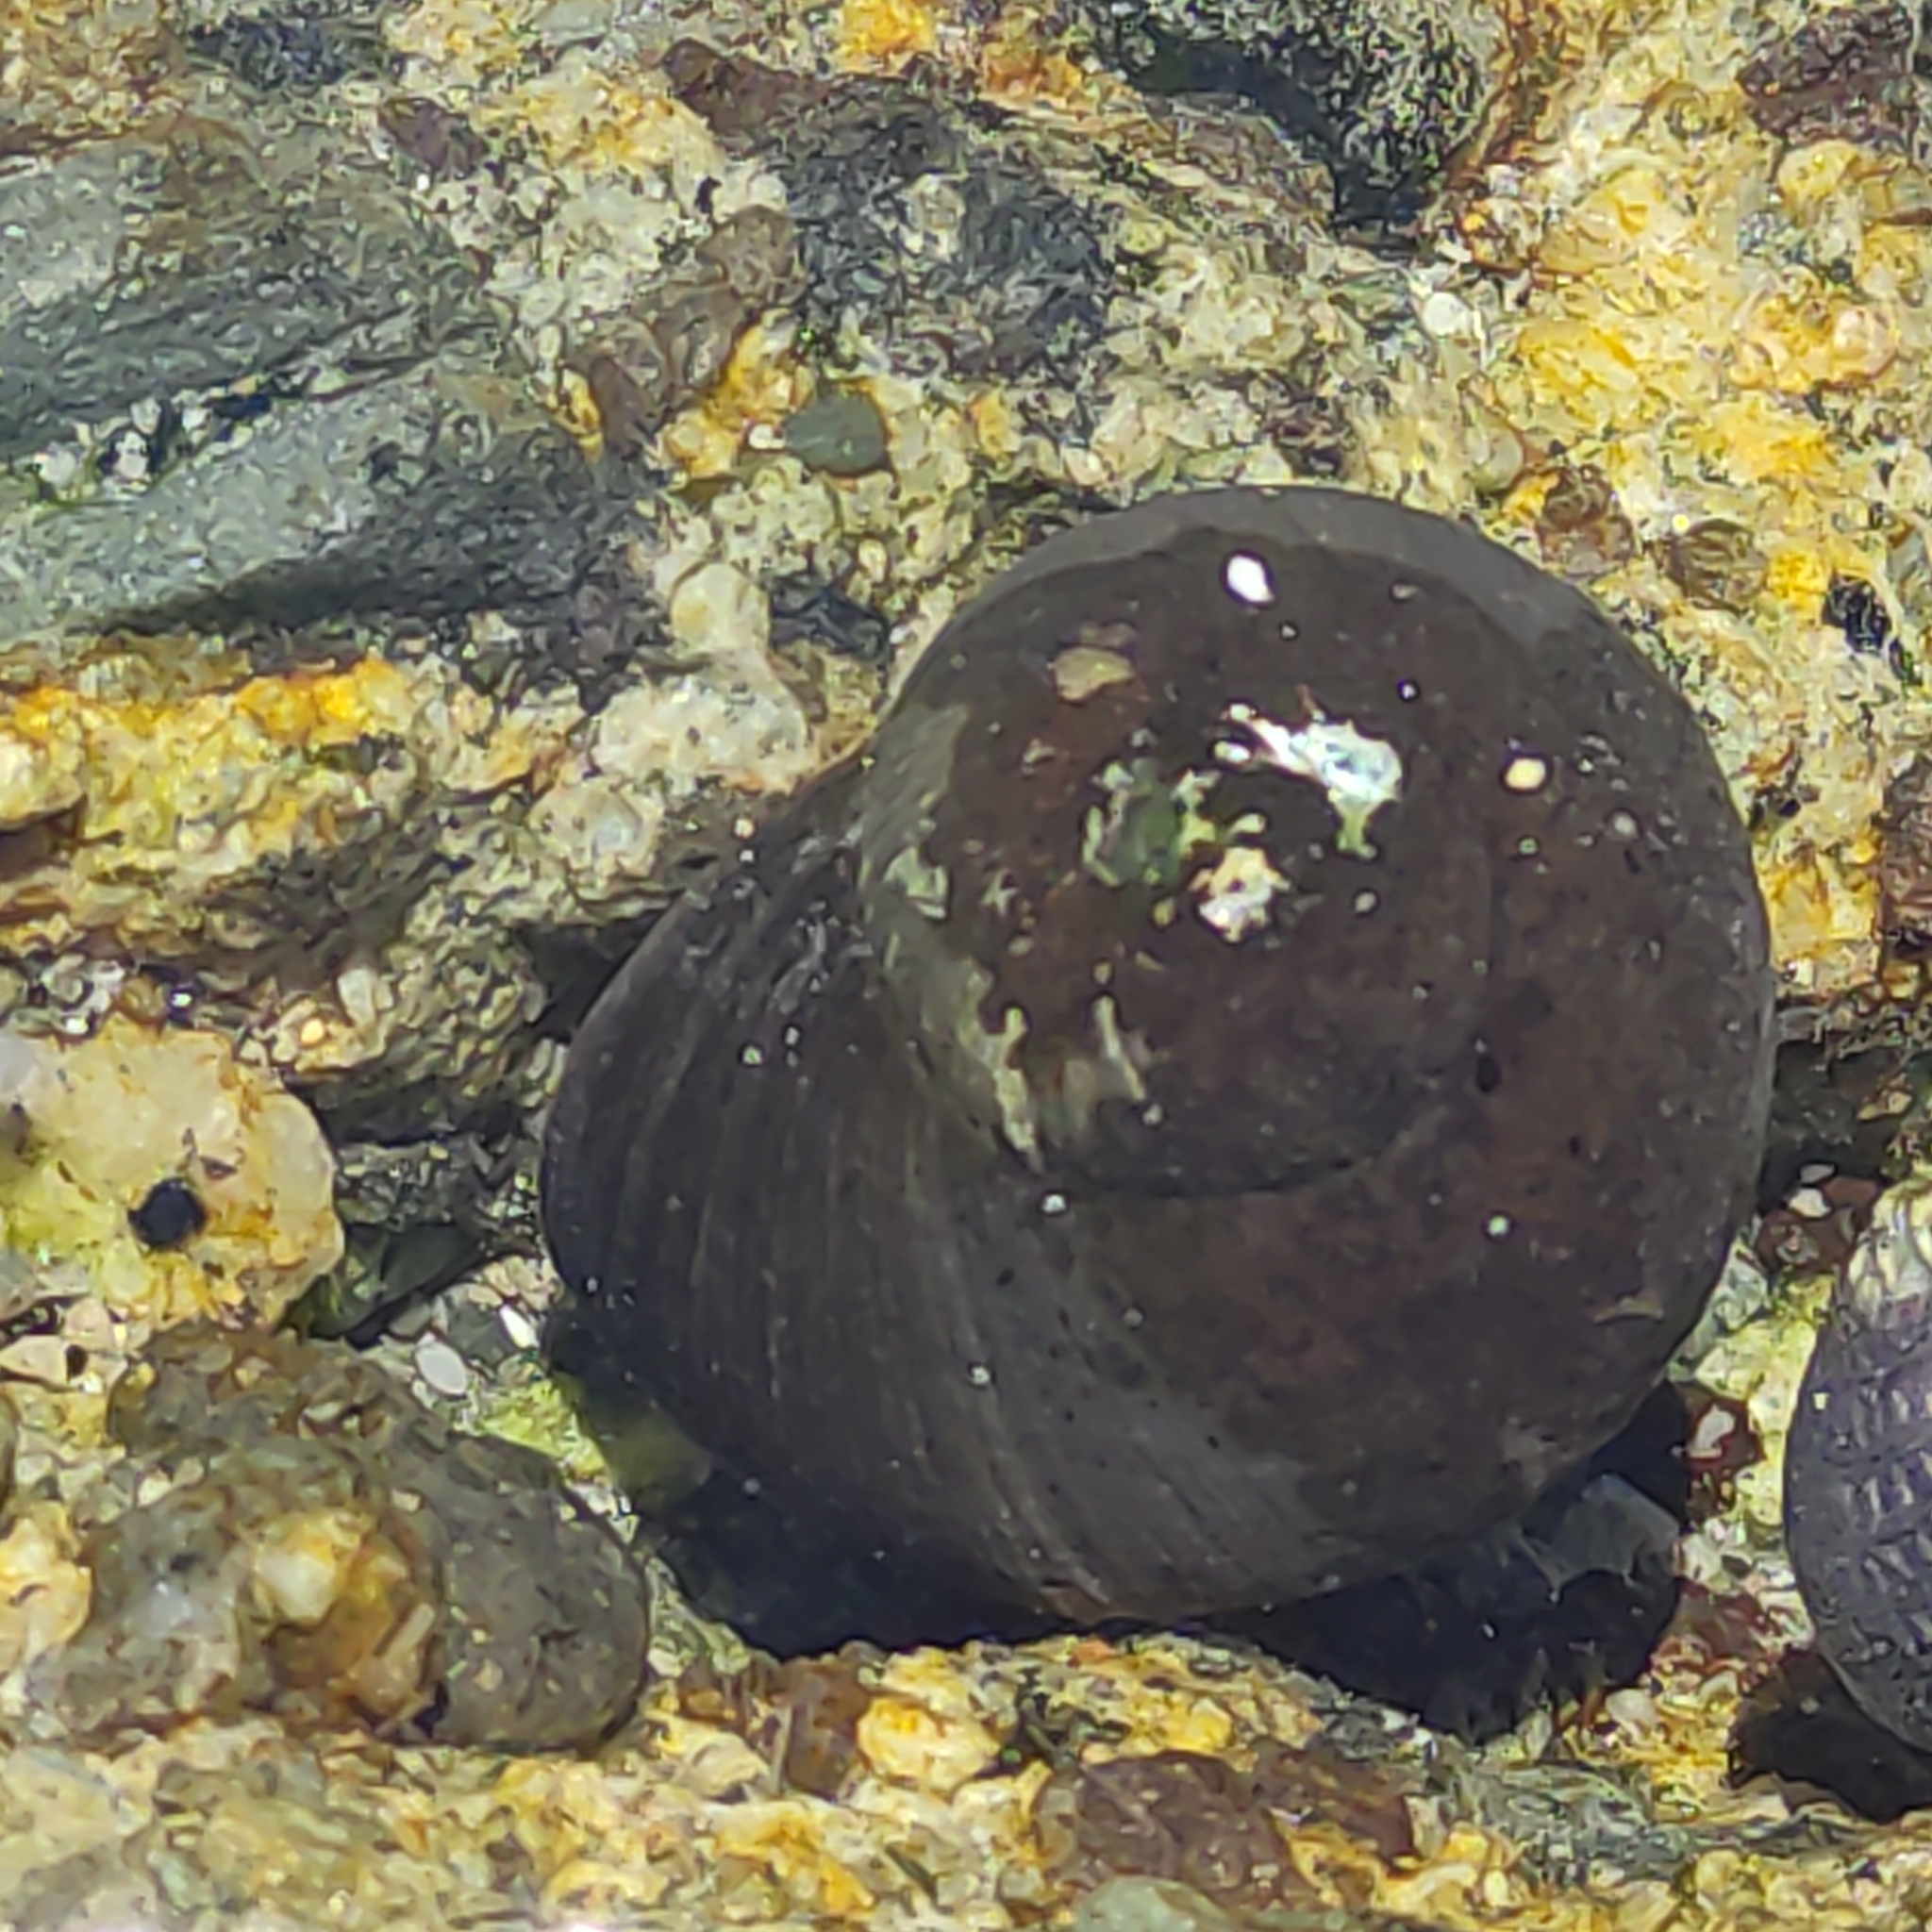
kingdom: Animalia
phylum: Mollusca
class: Gastropoda
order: Trochida
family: Turbinidae
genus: Lunella
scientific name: Lunella smaragda
